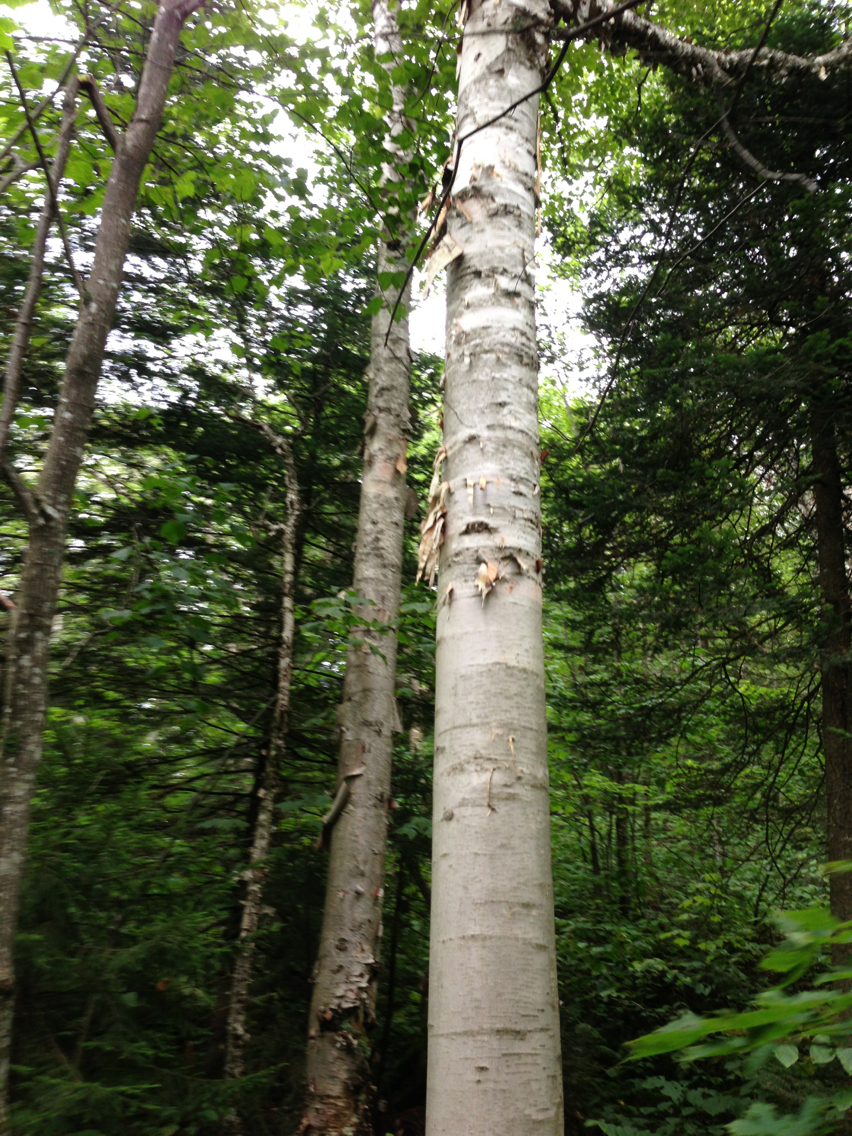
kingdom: Plantae
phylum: Tracheophyta
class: Magnoliopsida
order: Fagales
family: Betulaceae
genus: Betula
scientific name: Betula cordifolia
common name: Mountain white birch
